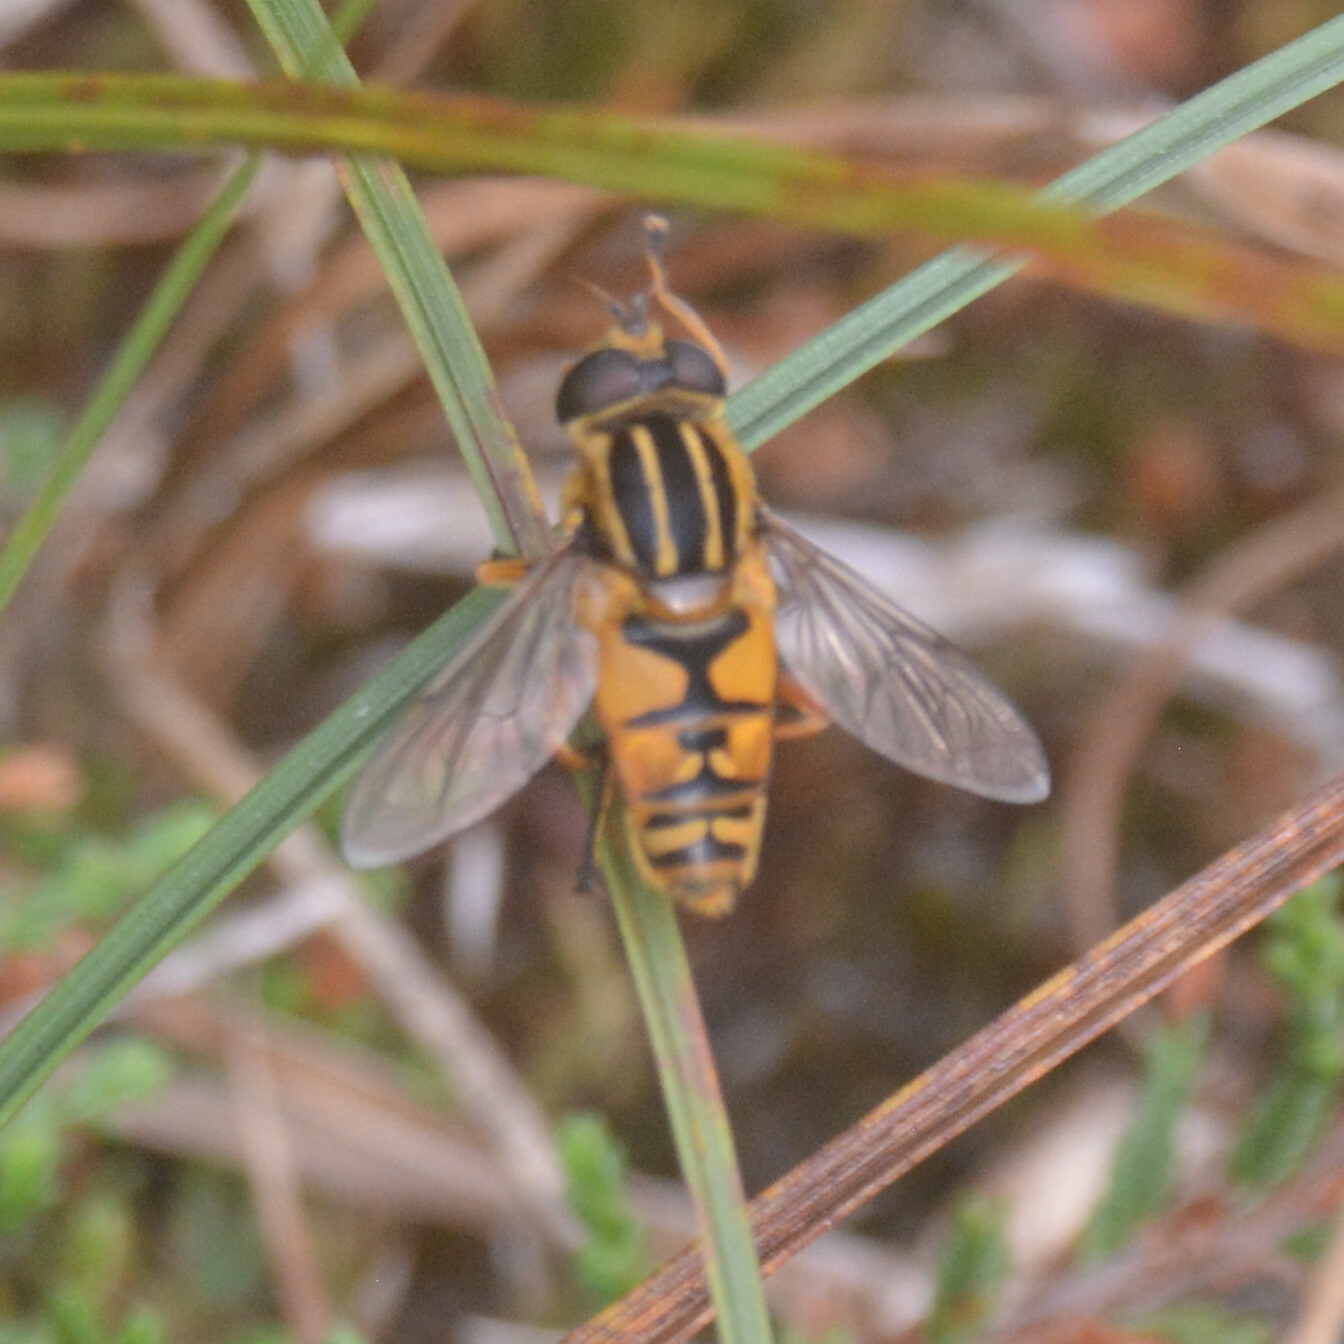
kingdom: Animalia
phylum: Arthropoda
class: Insecta
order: Diptera
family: Syrphidae
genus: Helophilus
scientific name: Helophilus pendulus
